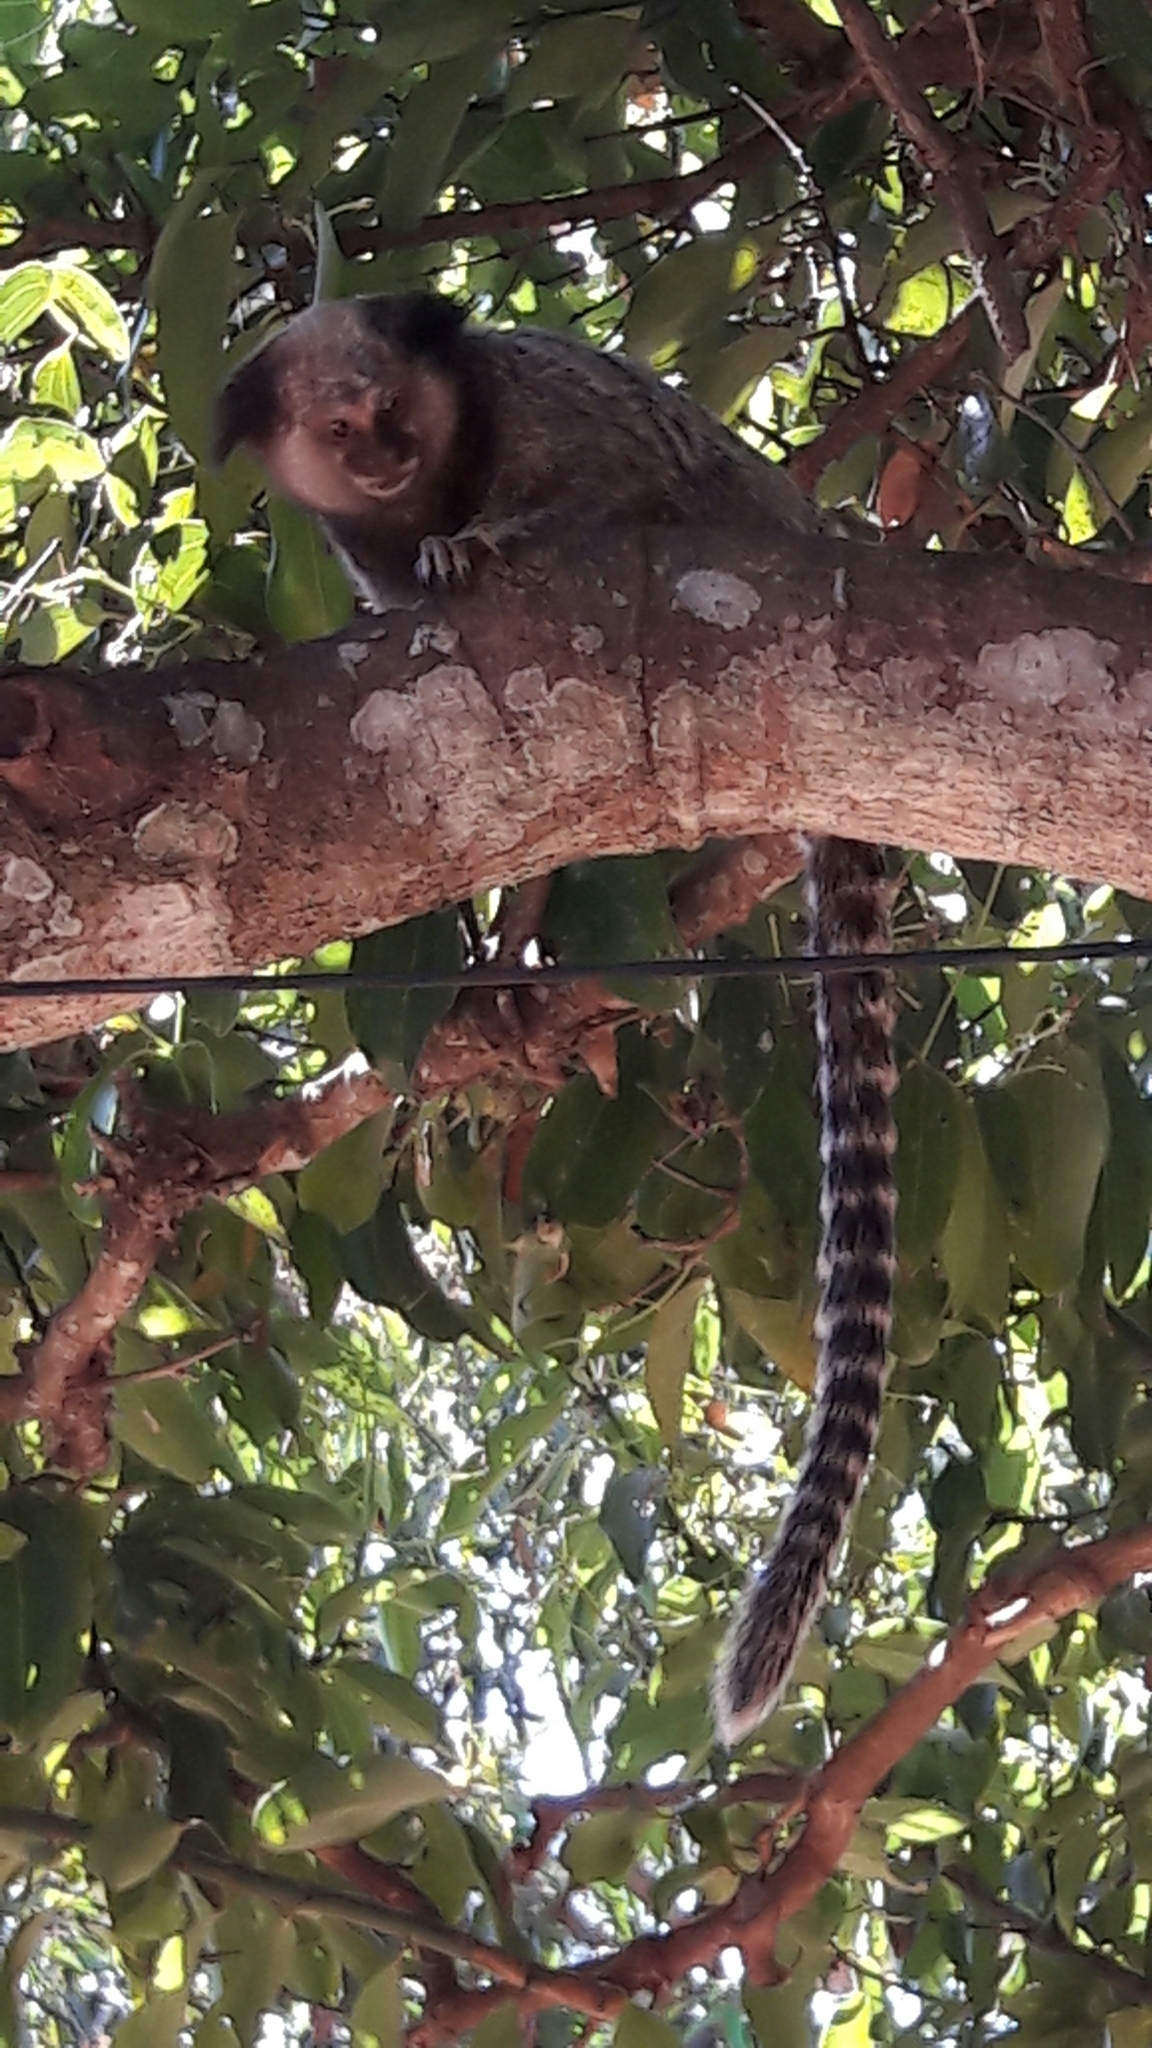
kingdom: Animalia
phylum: Chordata
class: Mammalia
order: Primates
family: Callitrichidae
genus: Callithrix
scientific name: Callithrix penicillata
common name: Black-tufted marmoset
